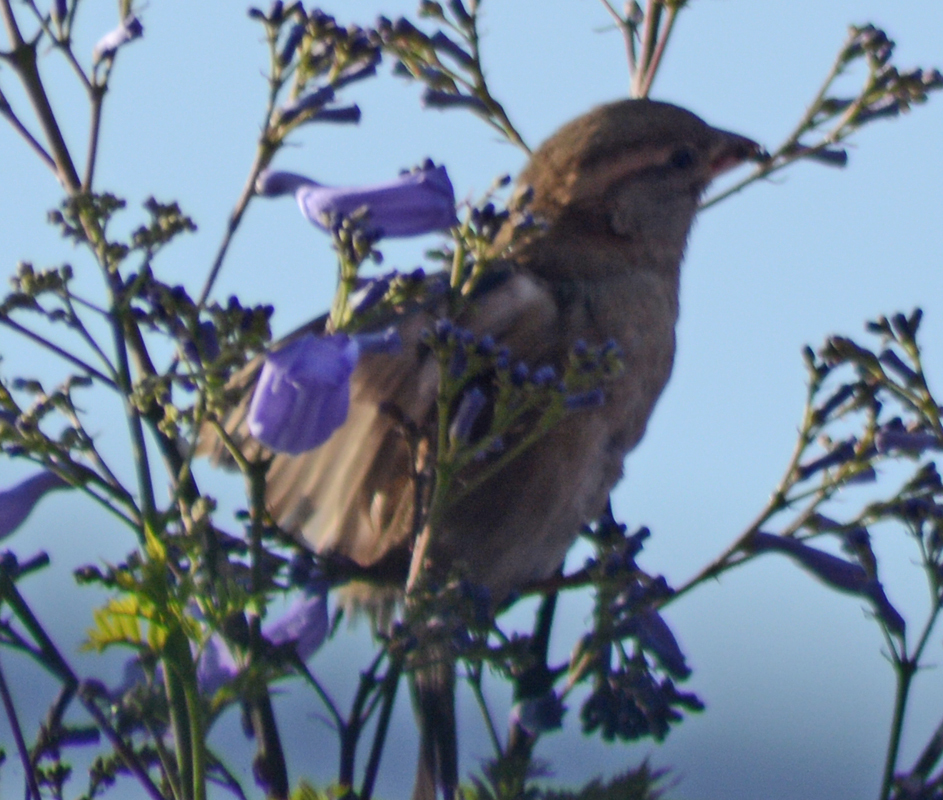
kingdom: Animalia
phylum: Chordata
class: Aves
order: Passeriformes
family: Passeridae
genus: Passer
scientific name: Passer domesticus
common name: House sparrow
